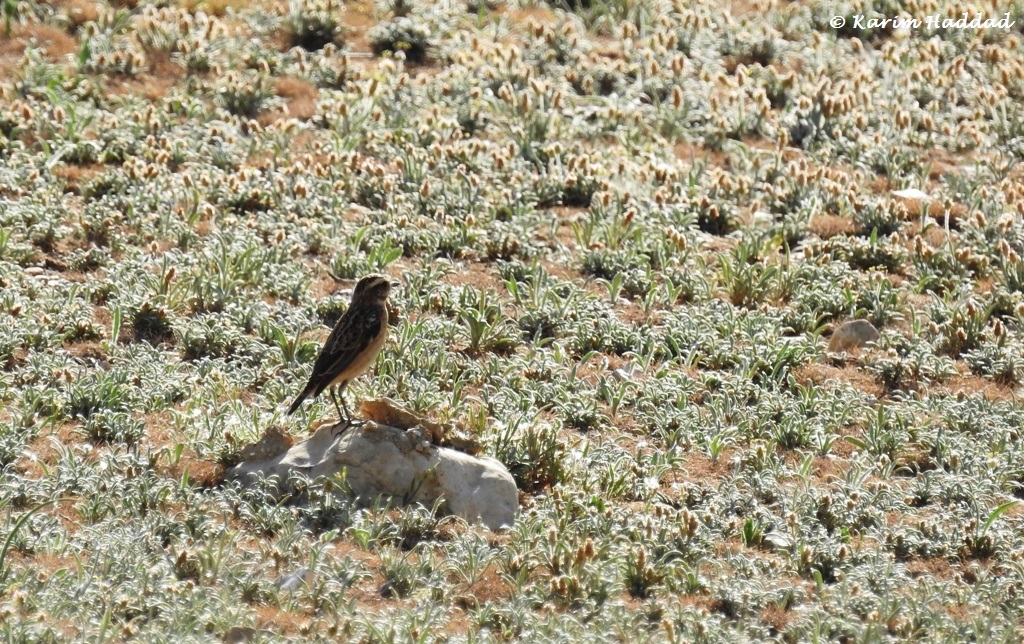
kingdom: Animalia
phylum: Chordata
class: Aves
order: Passeriformes
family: Muscicapidae
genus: Saxicola
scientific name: Saxicola rubetra
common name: Whinchat
